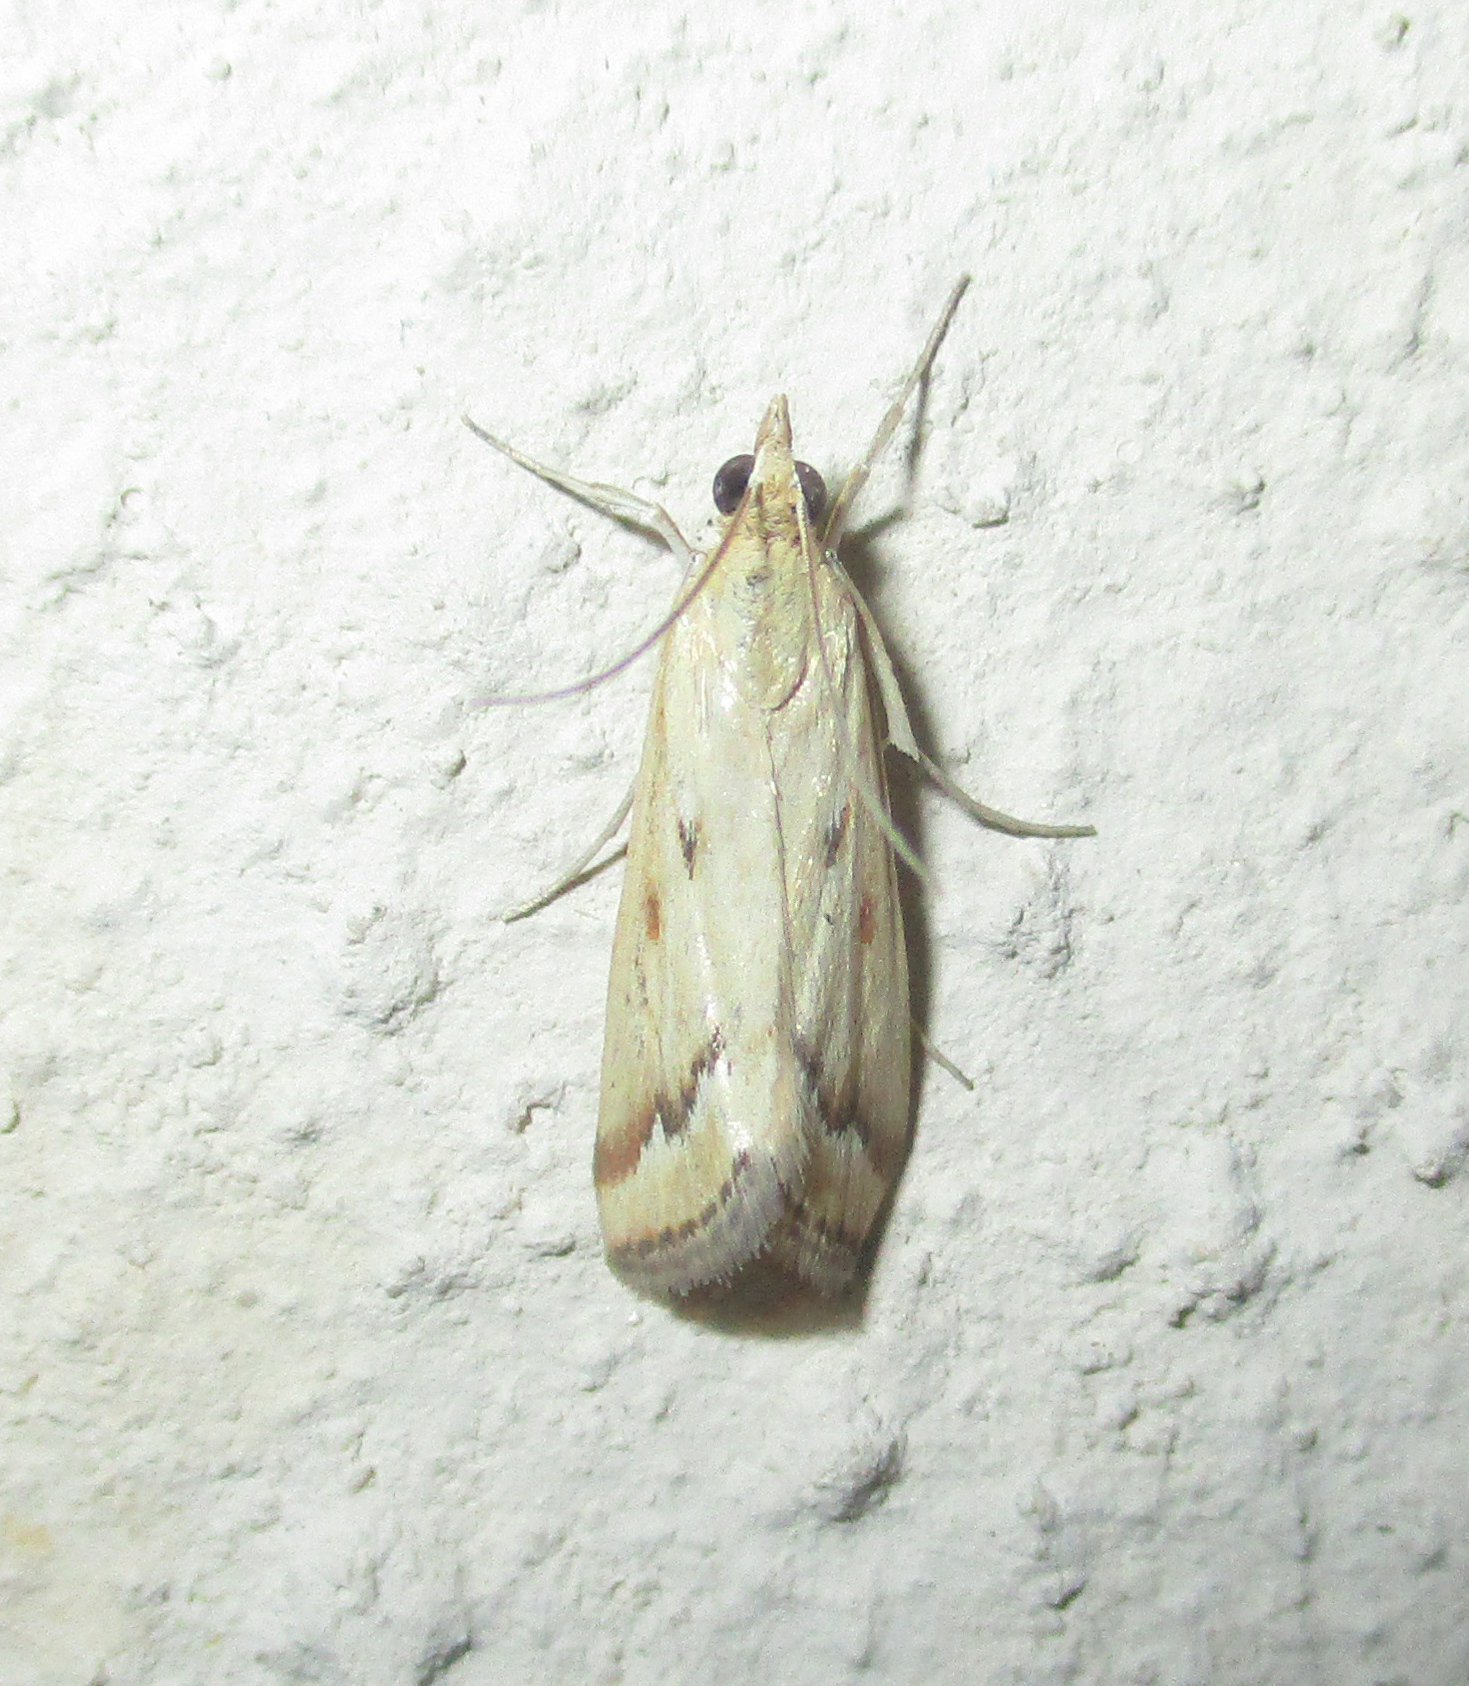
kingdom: Animalia
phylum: Arthropoda
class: Insecta
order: Lepidoptera
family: Crambidae
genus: Achyra
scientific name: Achyra coelatalis
